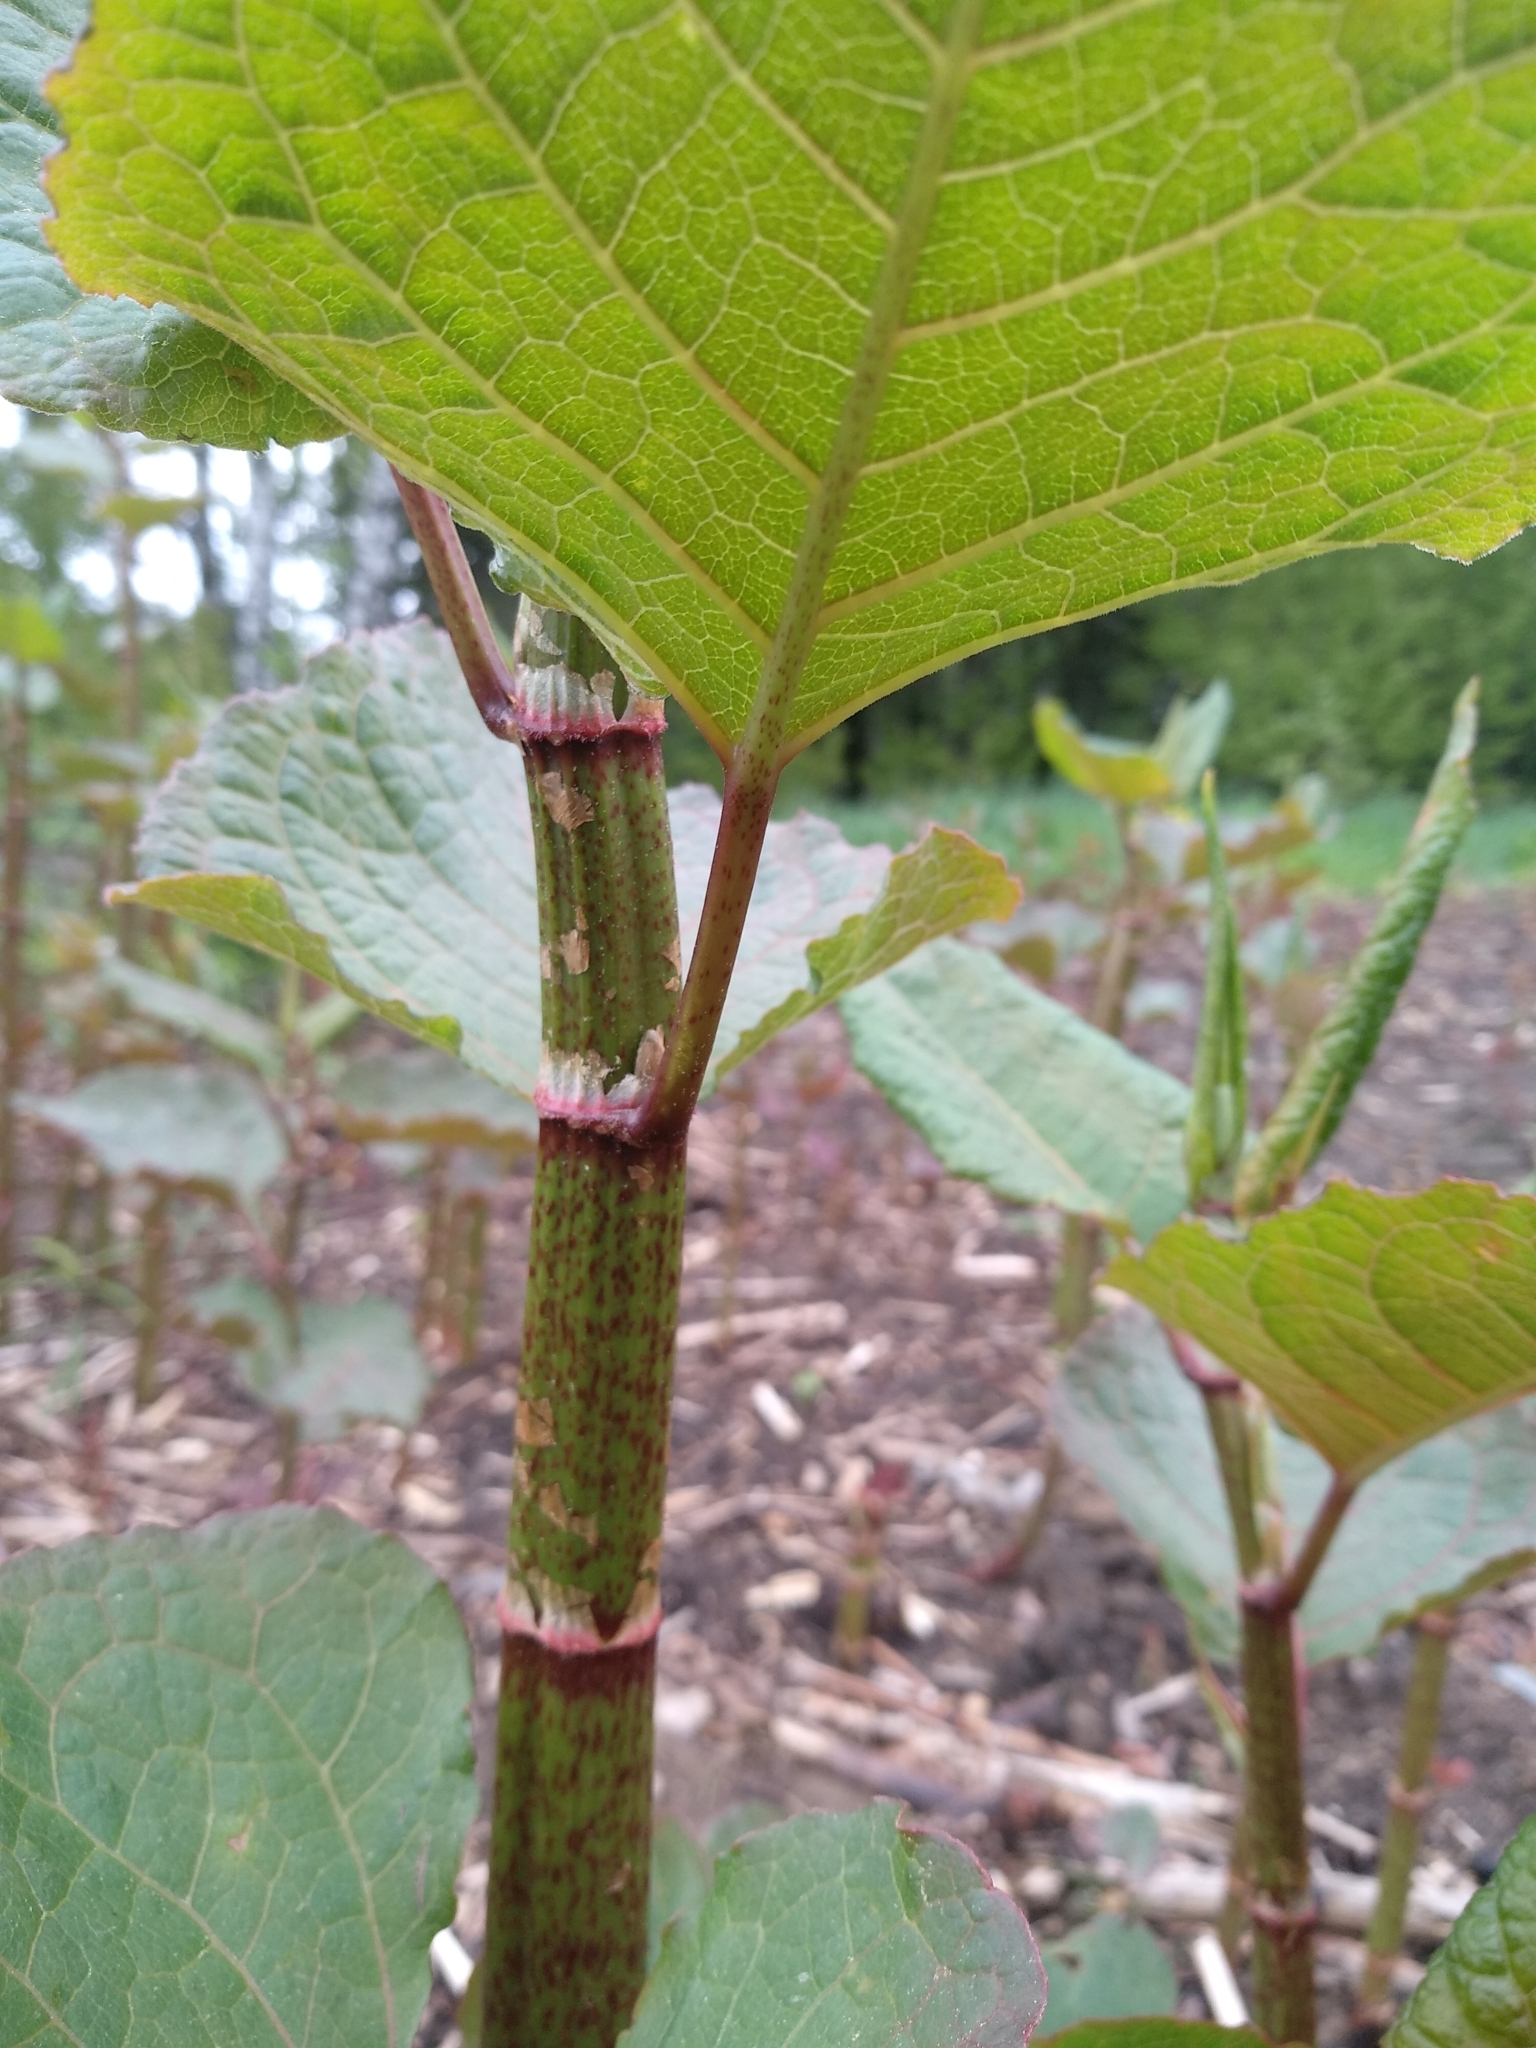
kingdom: Plantae
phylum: Tracheophyta
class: Magnoliopsida
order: Caryophyllales
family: Polygonaceae
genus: Reynoutria
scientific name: Reynoutria bohemica
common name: Bohemian knotweed
